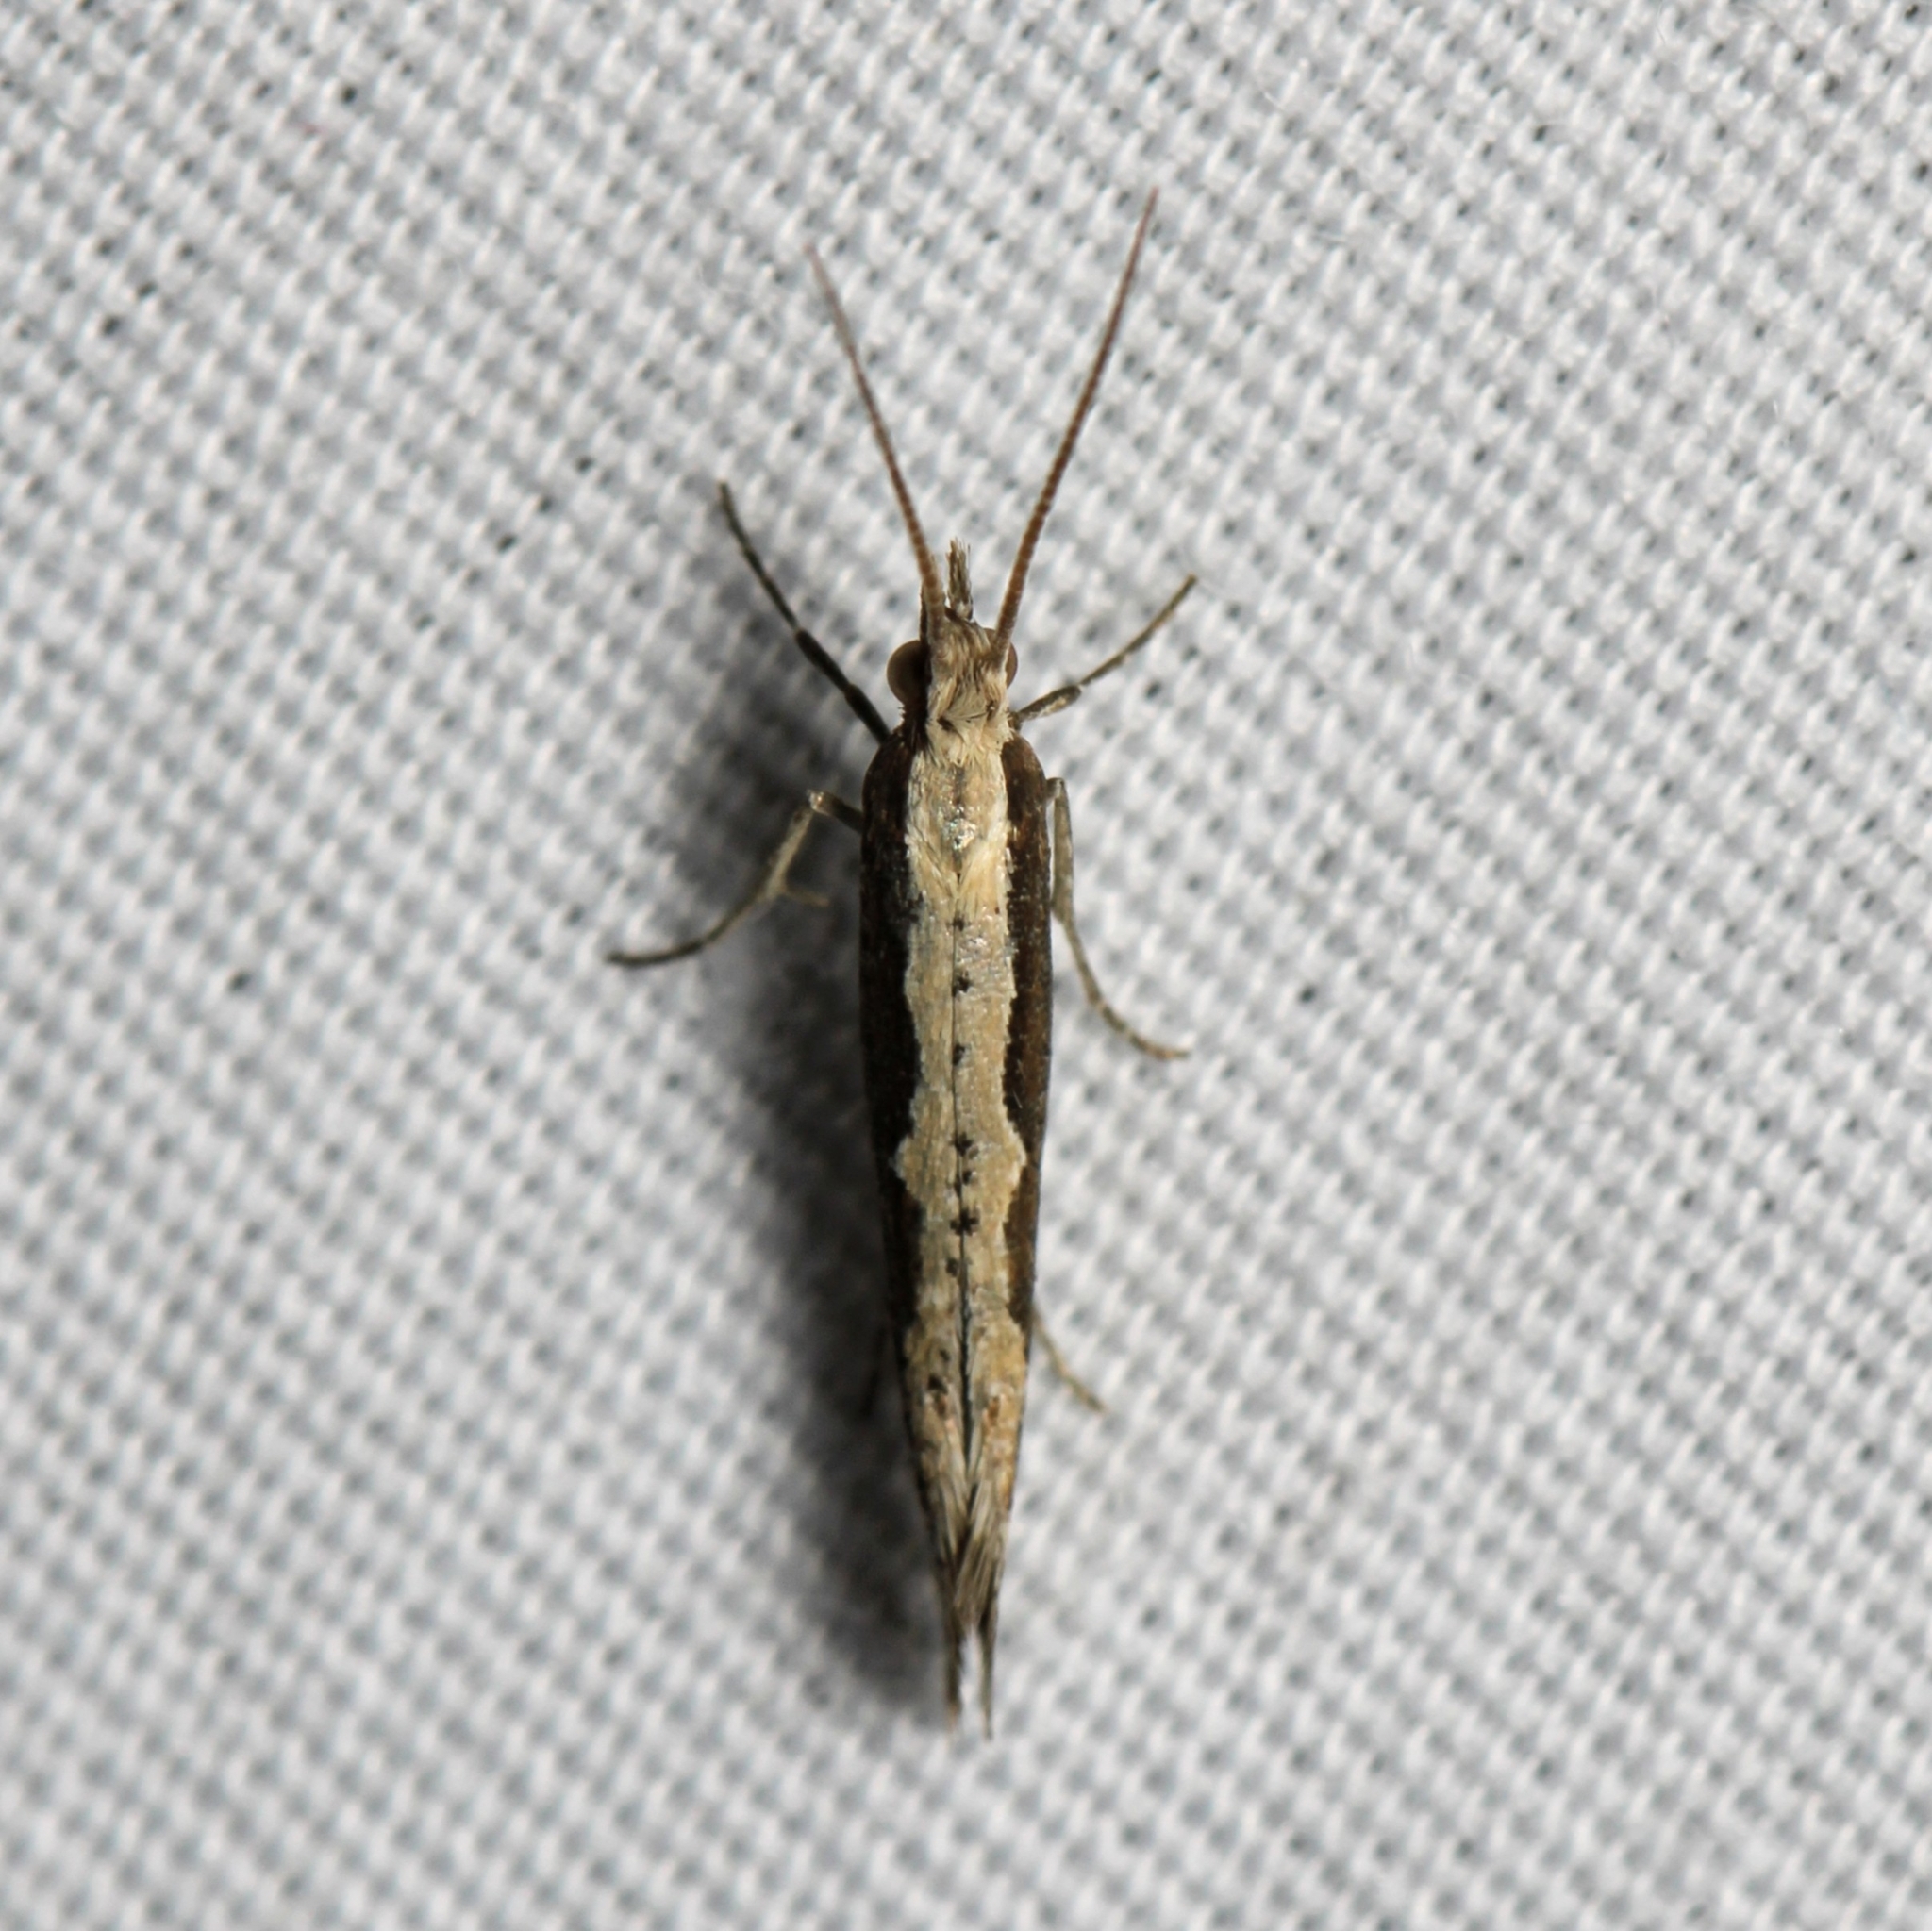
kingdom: Animalia
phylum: Arthropoda
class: Insecta
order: Lepidoptera
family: Plutellidae
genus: Plutella
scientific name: Plutella xylostella
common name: Diamond-back moth
